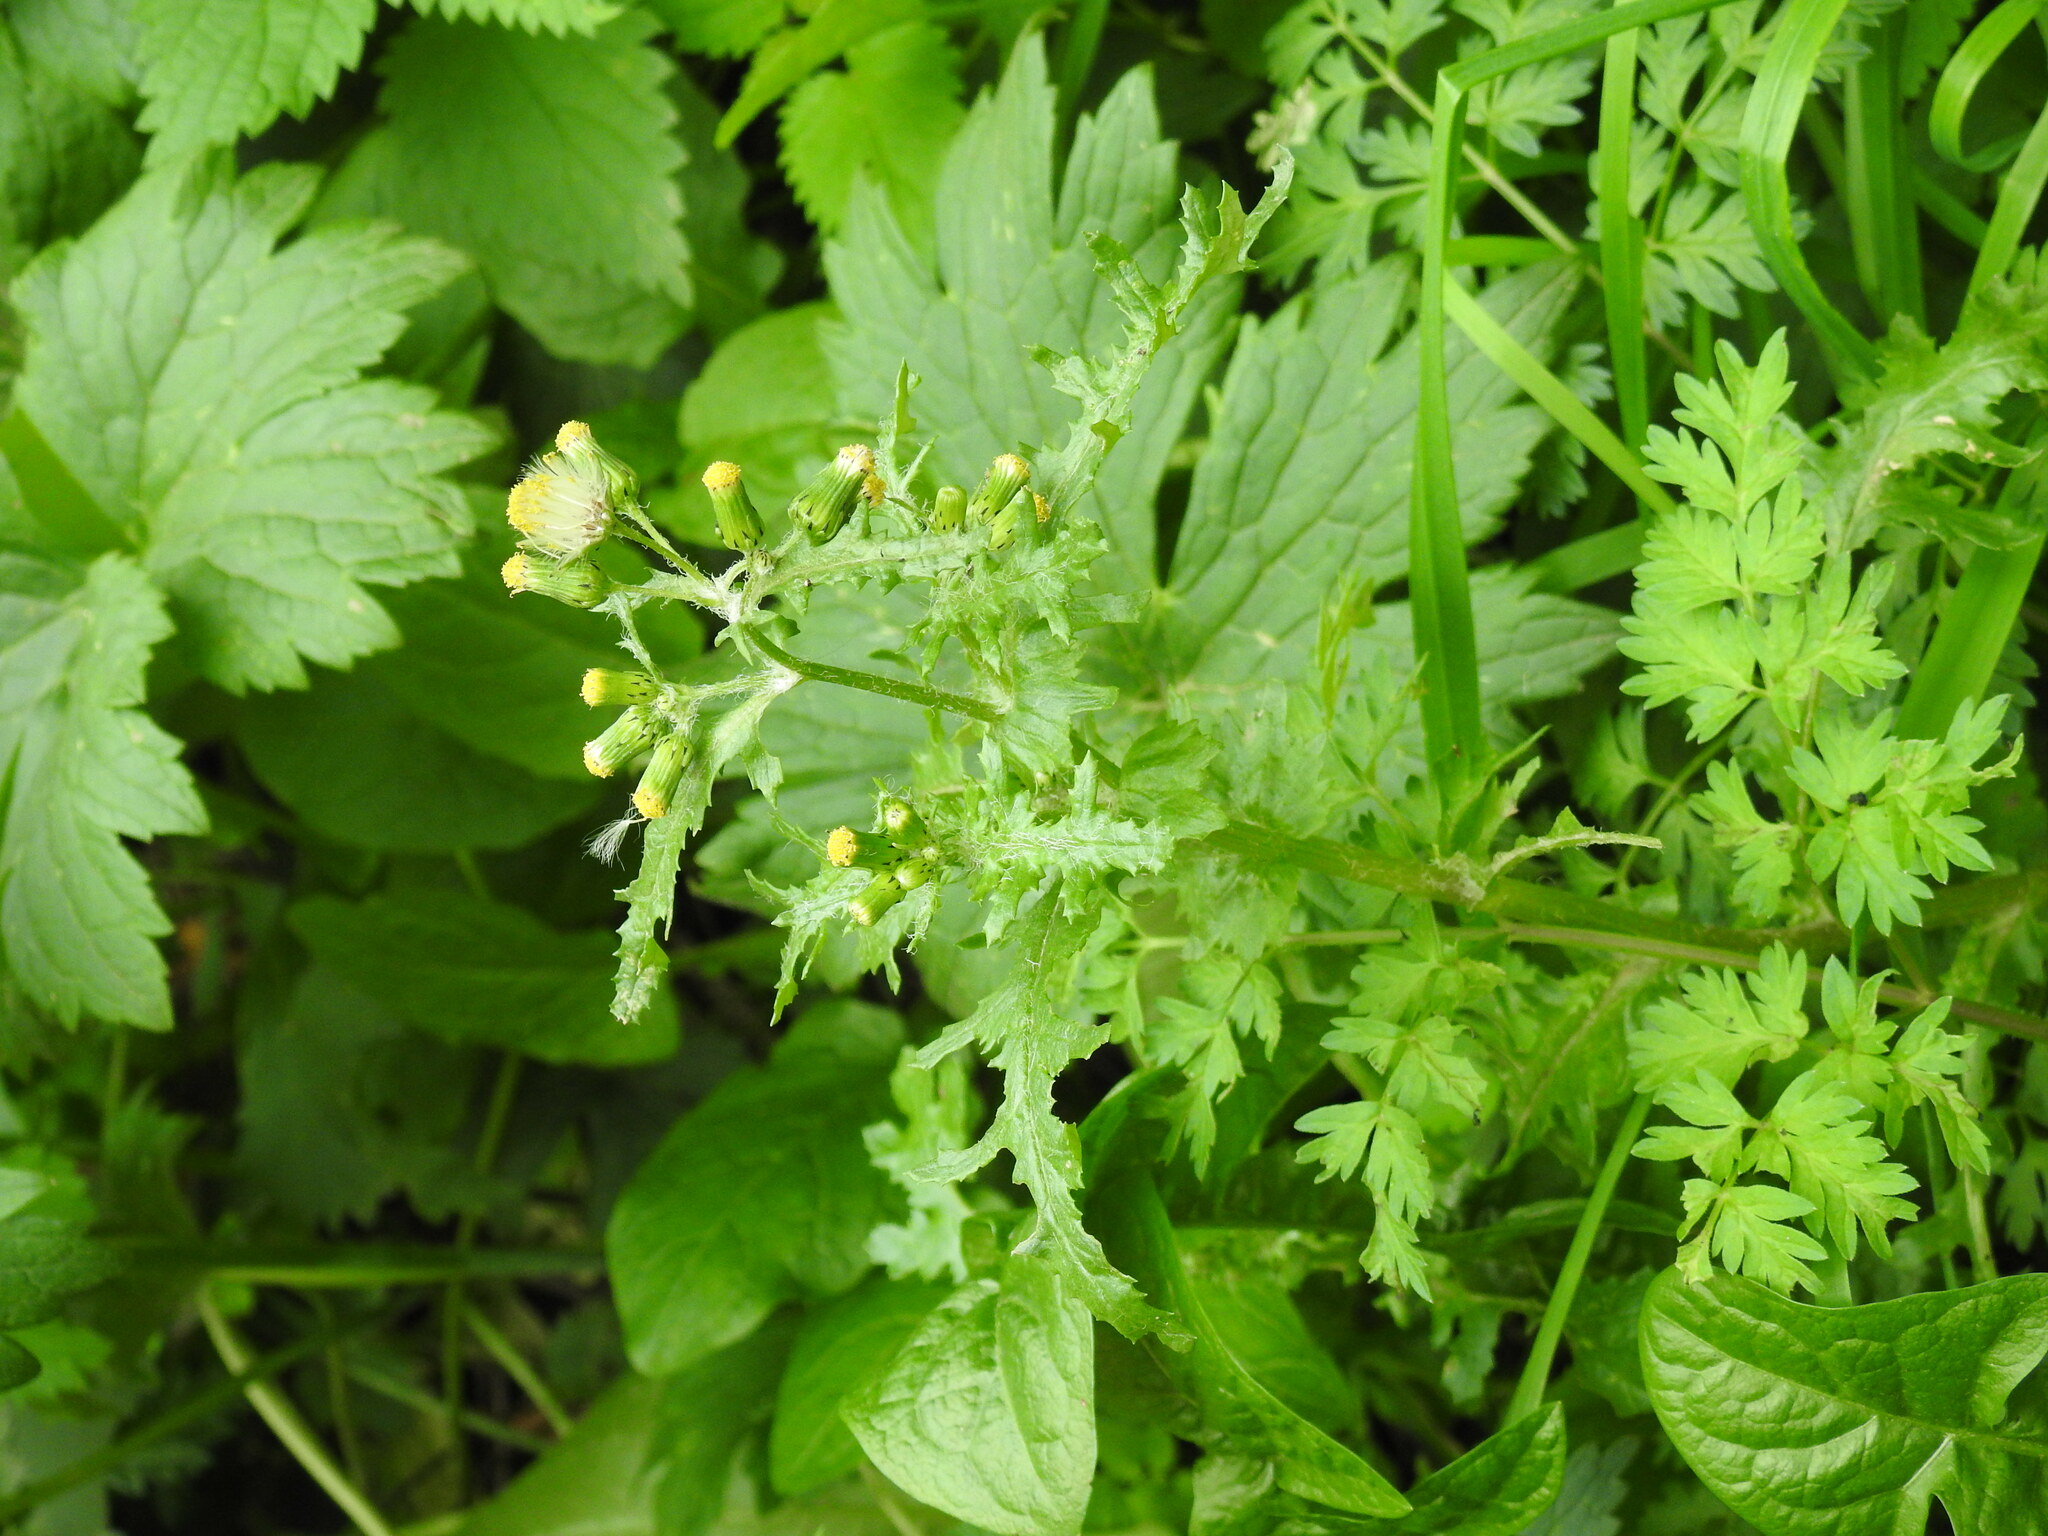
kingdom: Plantae
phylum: Tracheophyta
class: Magnoliopsida
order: Asterales
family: Asteraceae
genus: Senecio
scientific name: Senecio vulgaris
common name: Old-man-in-the-spring
